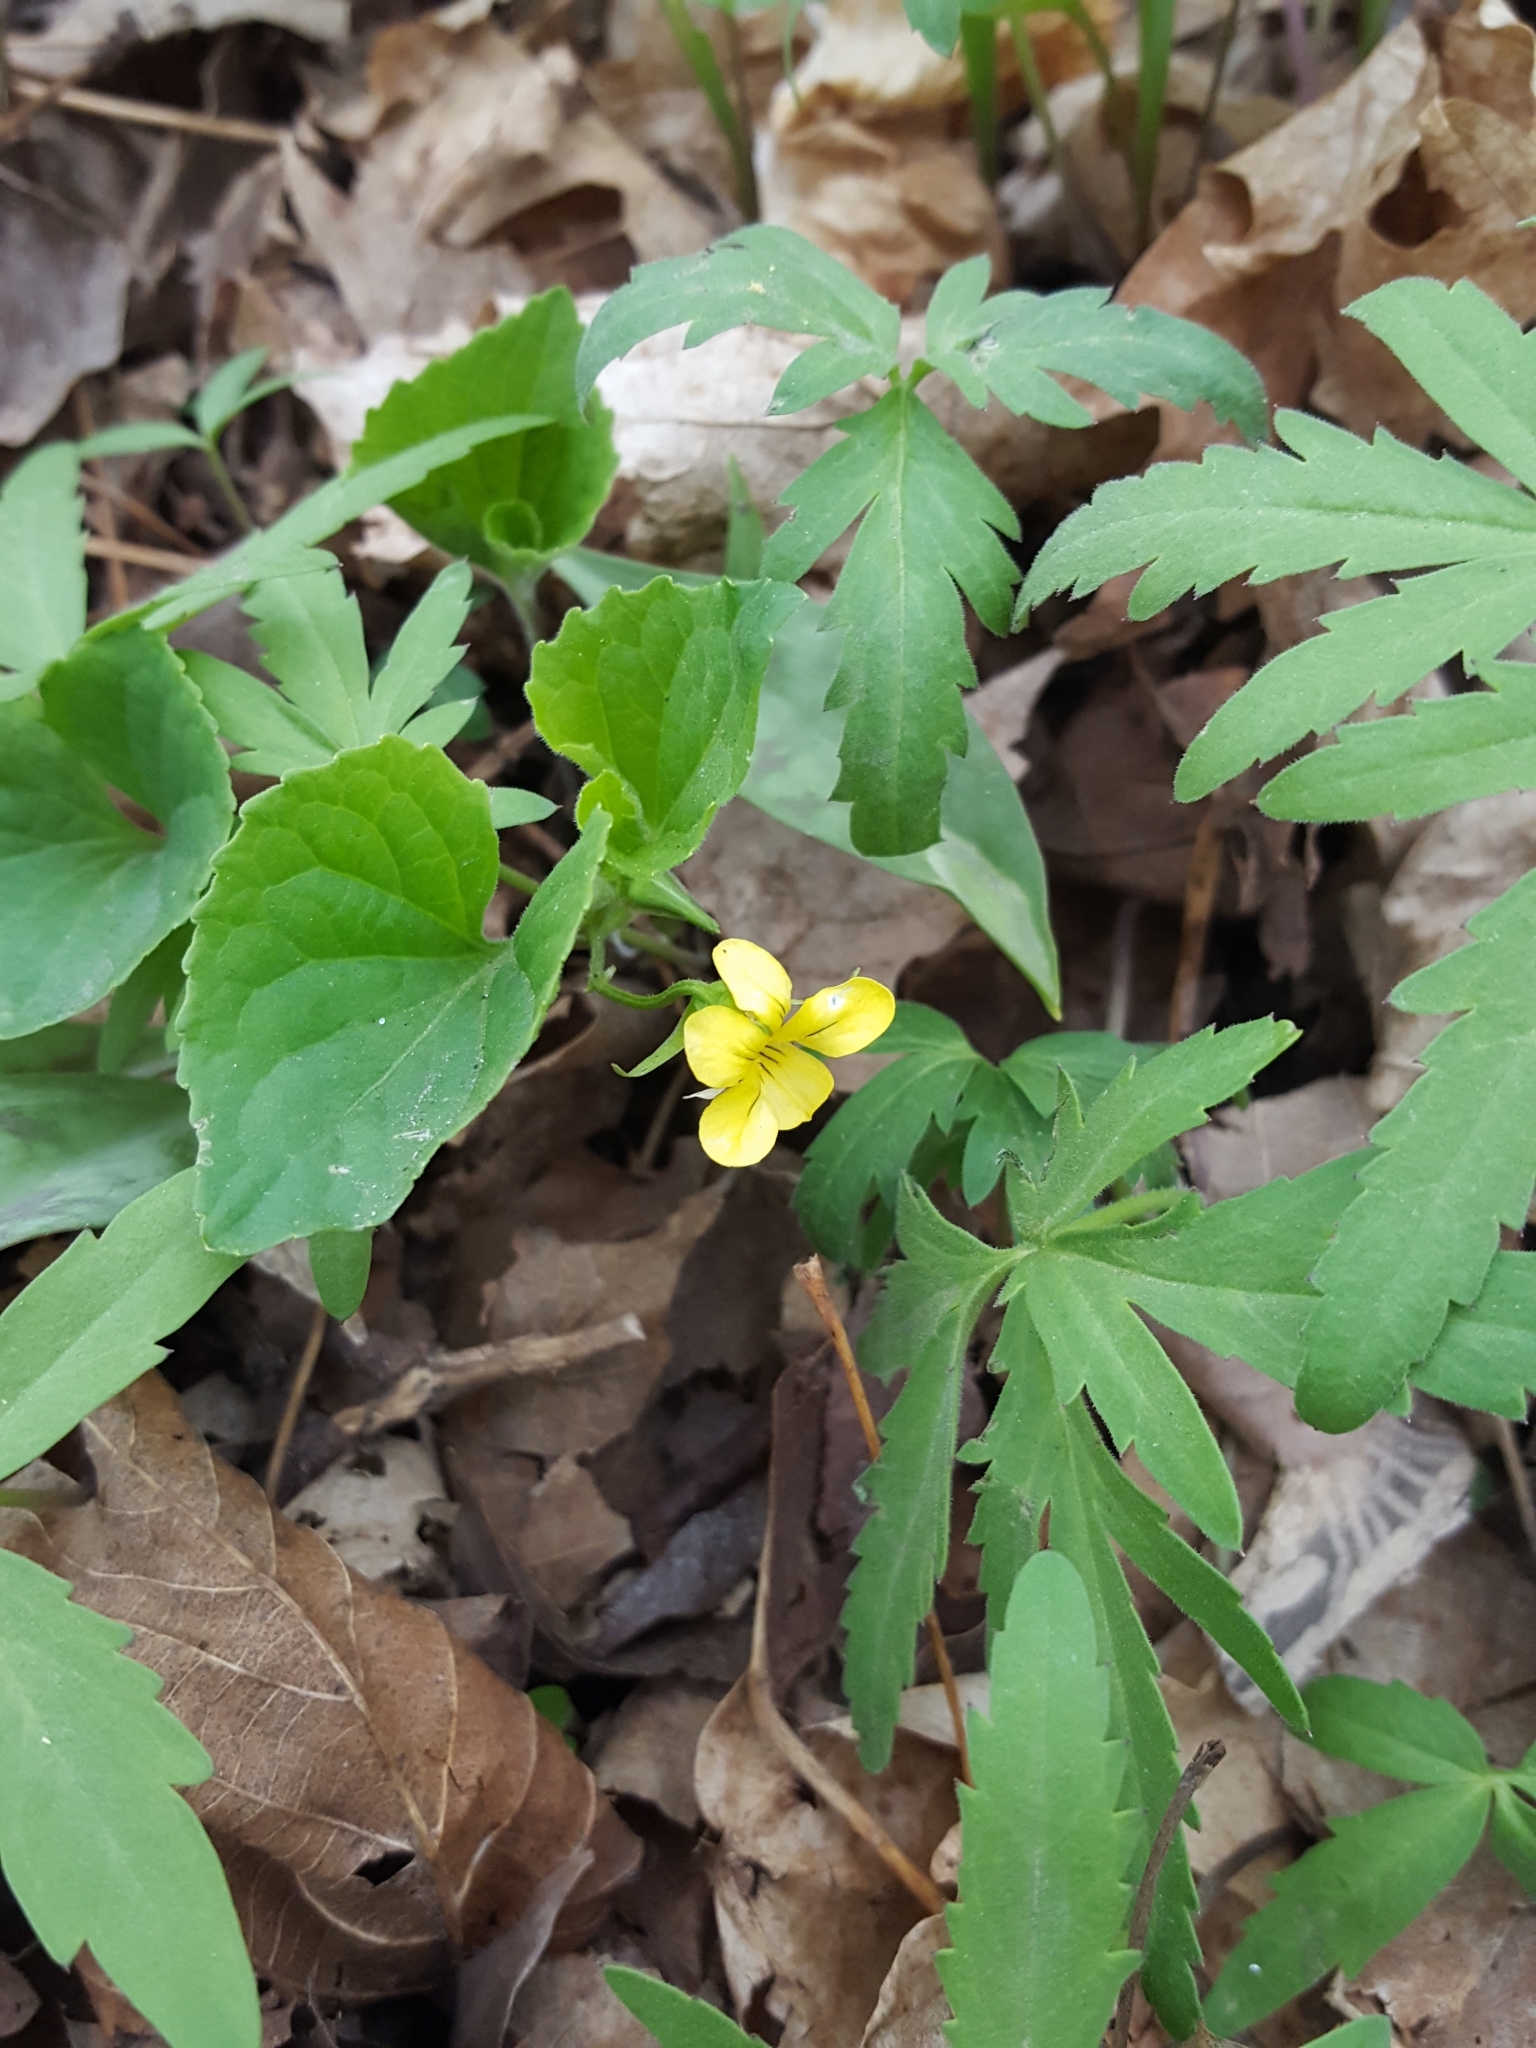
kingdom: Plantae
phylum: Tracheophyta
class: Magnoliopsida
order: Malpighiales
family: Violaceae
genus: Viola
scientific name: Viola eriocarpa
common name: Smooth yellow violet
